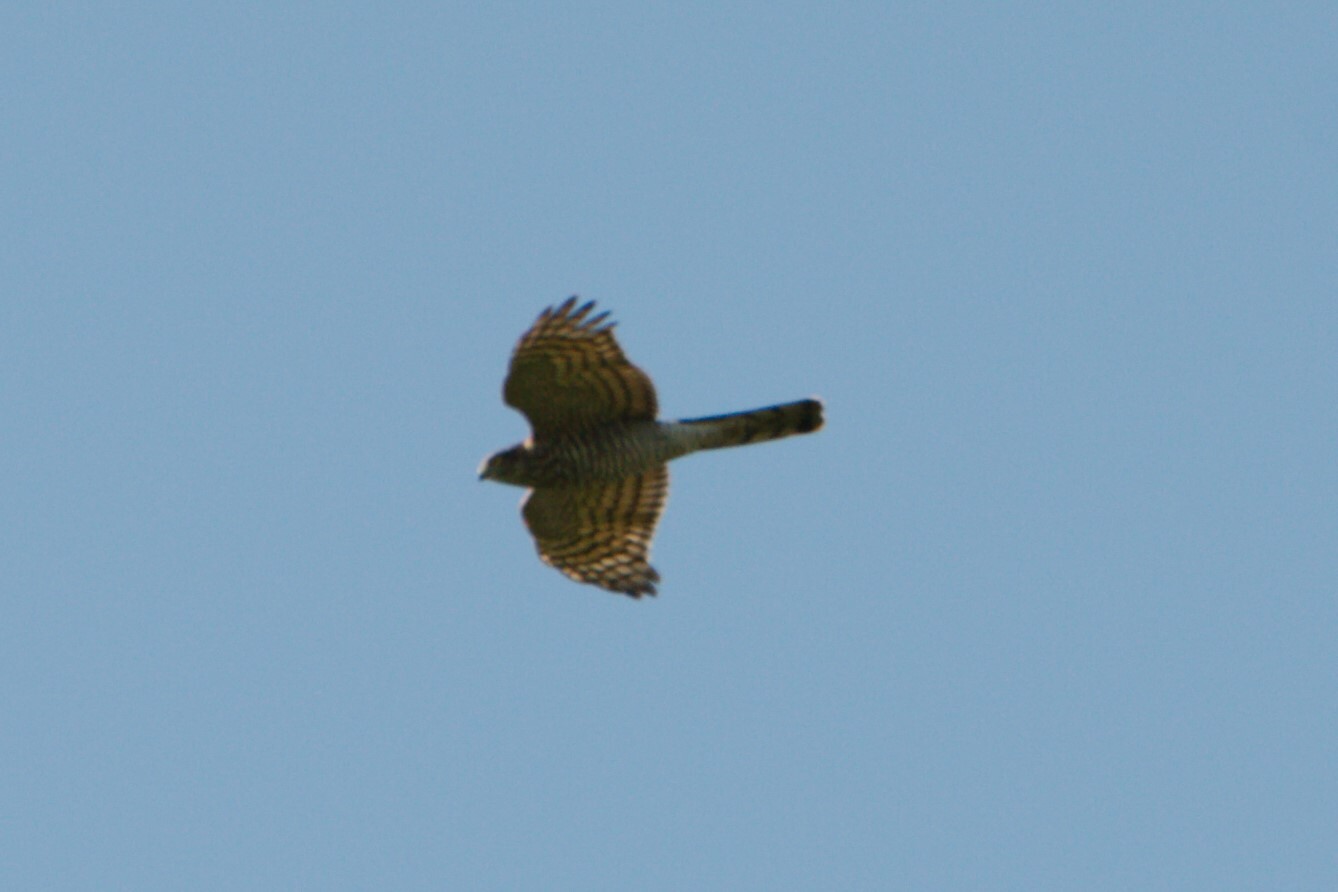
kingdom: Animalia
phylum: Chordata
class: Aves
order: Accipitriformes
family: Accipitridae
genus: Accipiter
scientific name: Accipiter nisus
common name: Eurasian sparrowhawk
